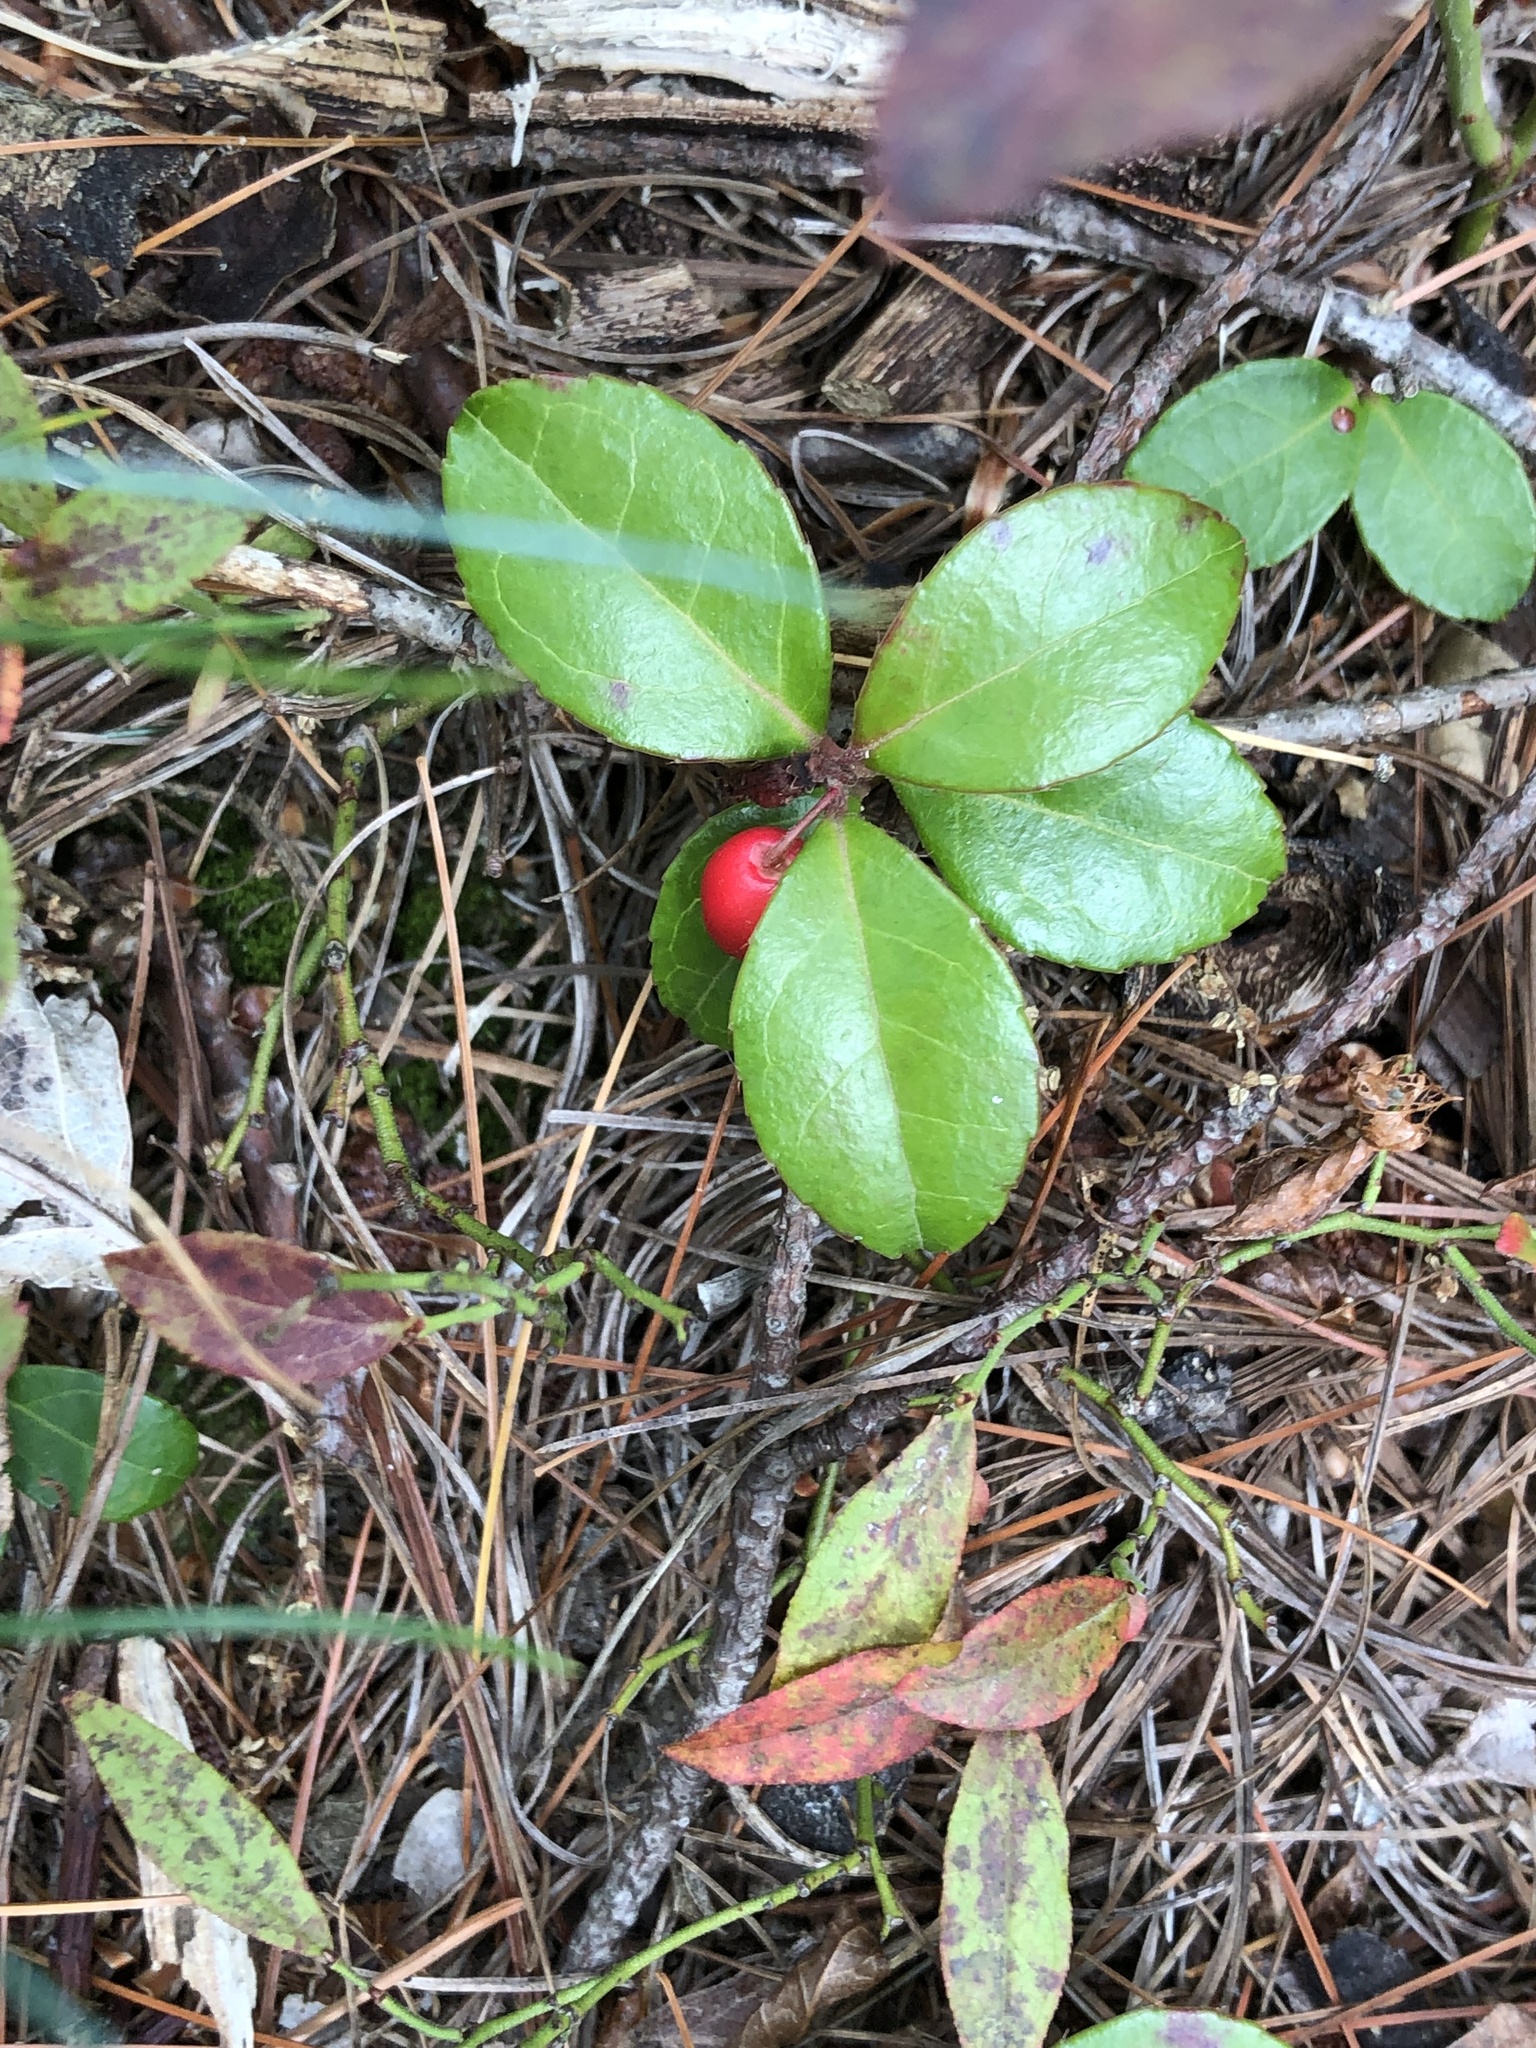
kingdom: Plantae
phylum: Tracheophyta
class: Magnoliopsida
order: Ericales
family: Ericaceae
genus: Gaultheria
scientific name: Gaultheria procumbens
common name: Checkerberry
